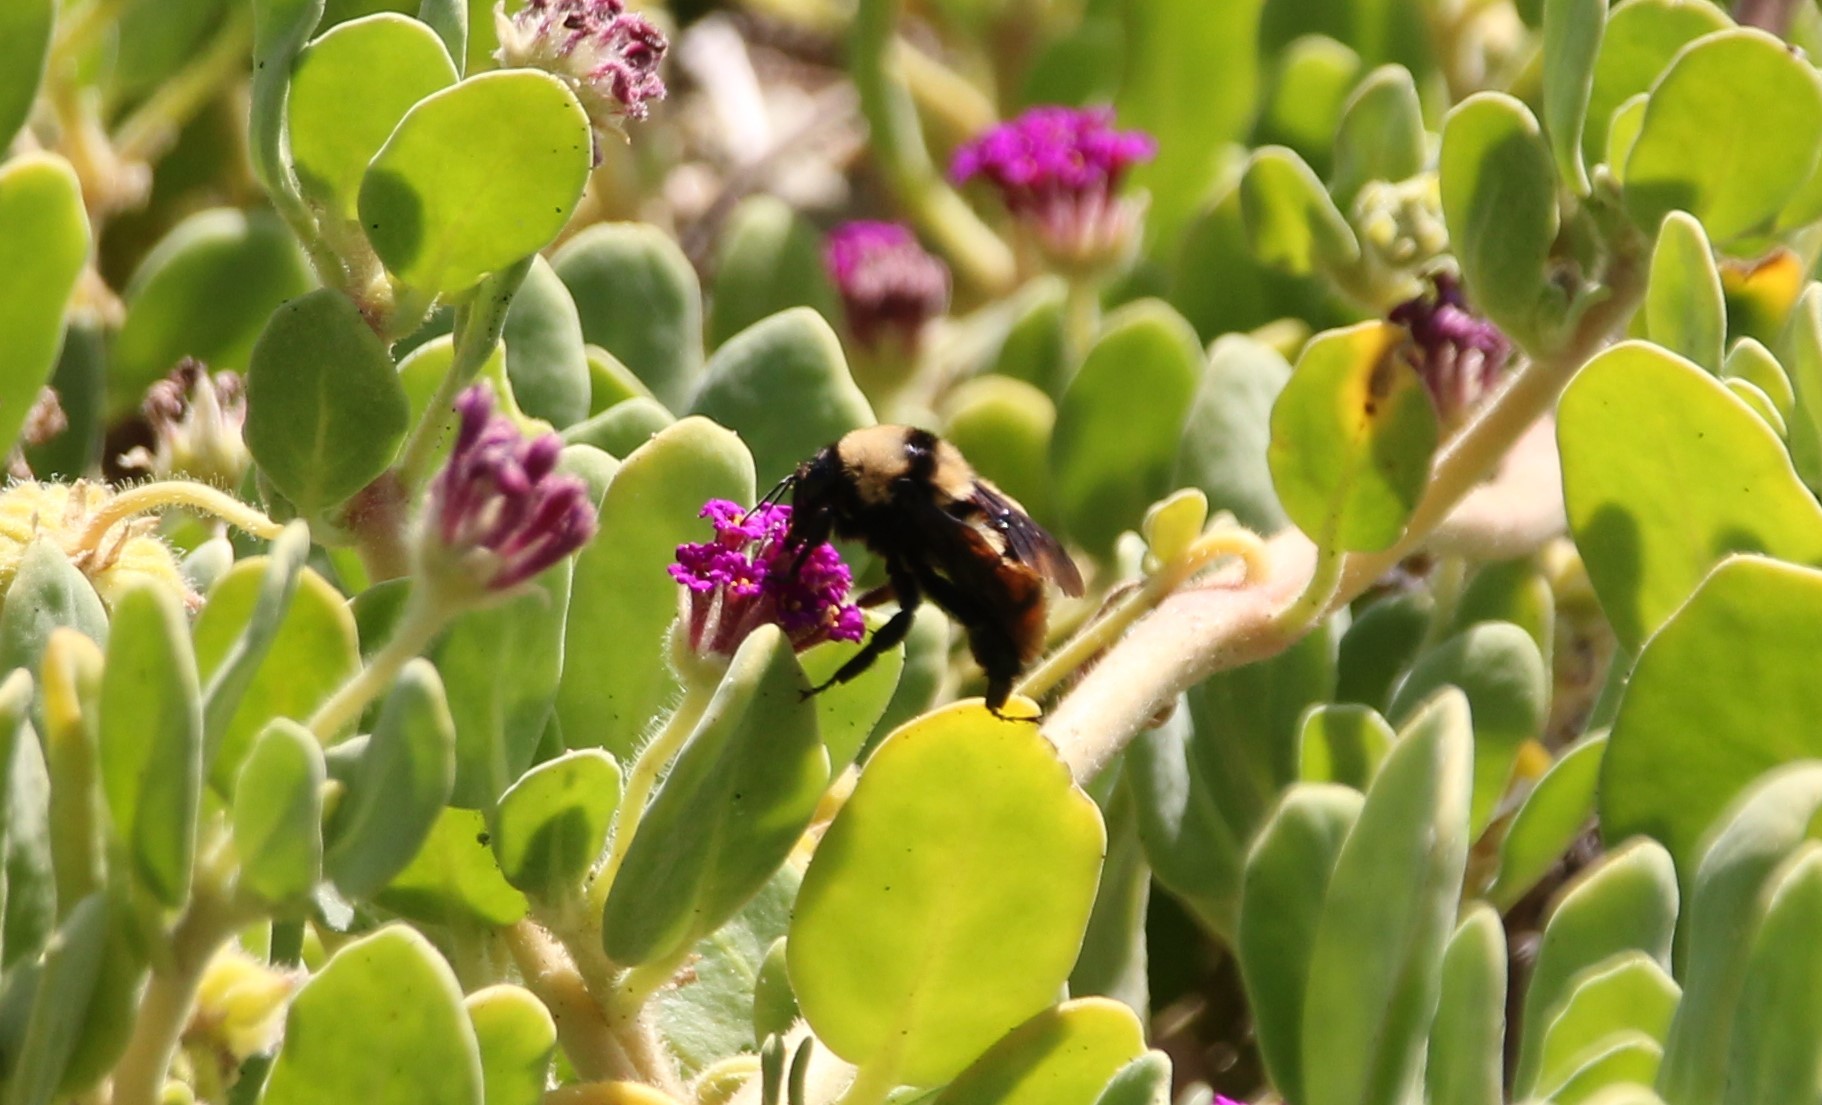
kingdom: Animalia
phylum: Arthropoda
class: Insecta
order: Hymenoptera
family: Apidae
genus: Bombus
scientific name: Bombus sonorus
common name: Sonoran bumble bee
